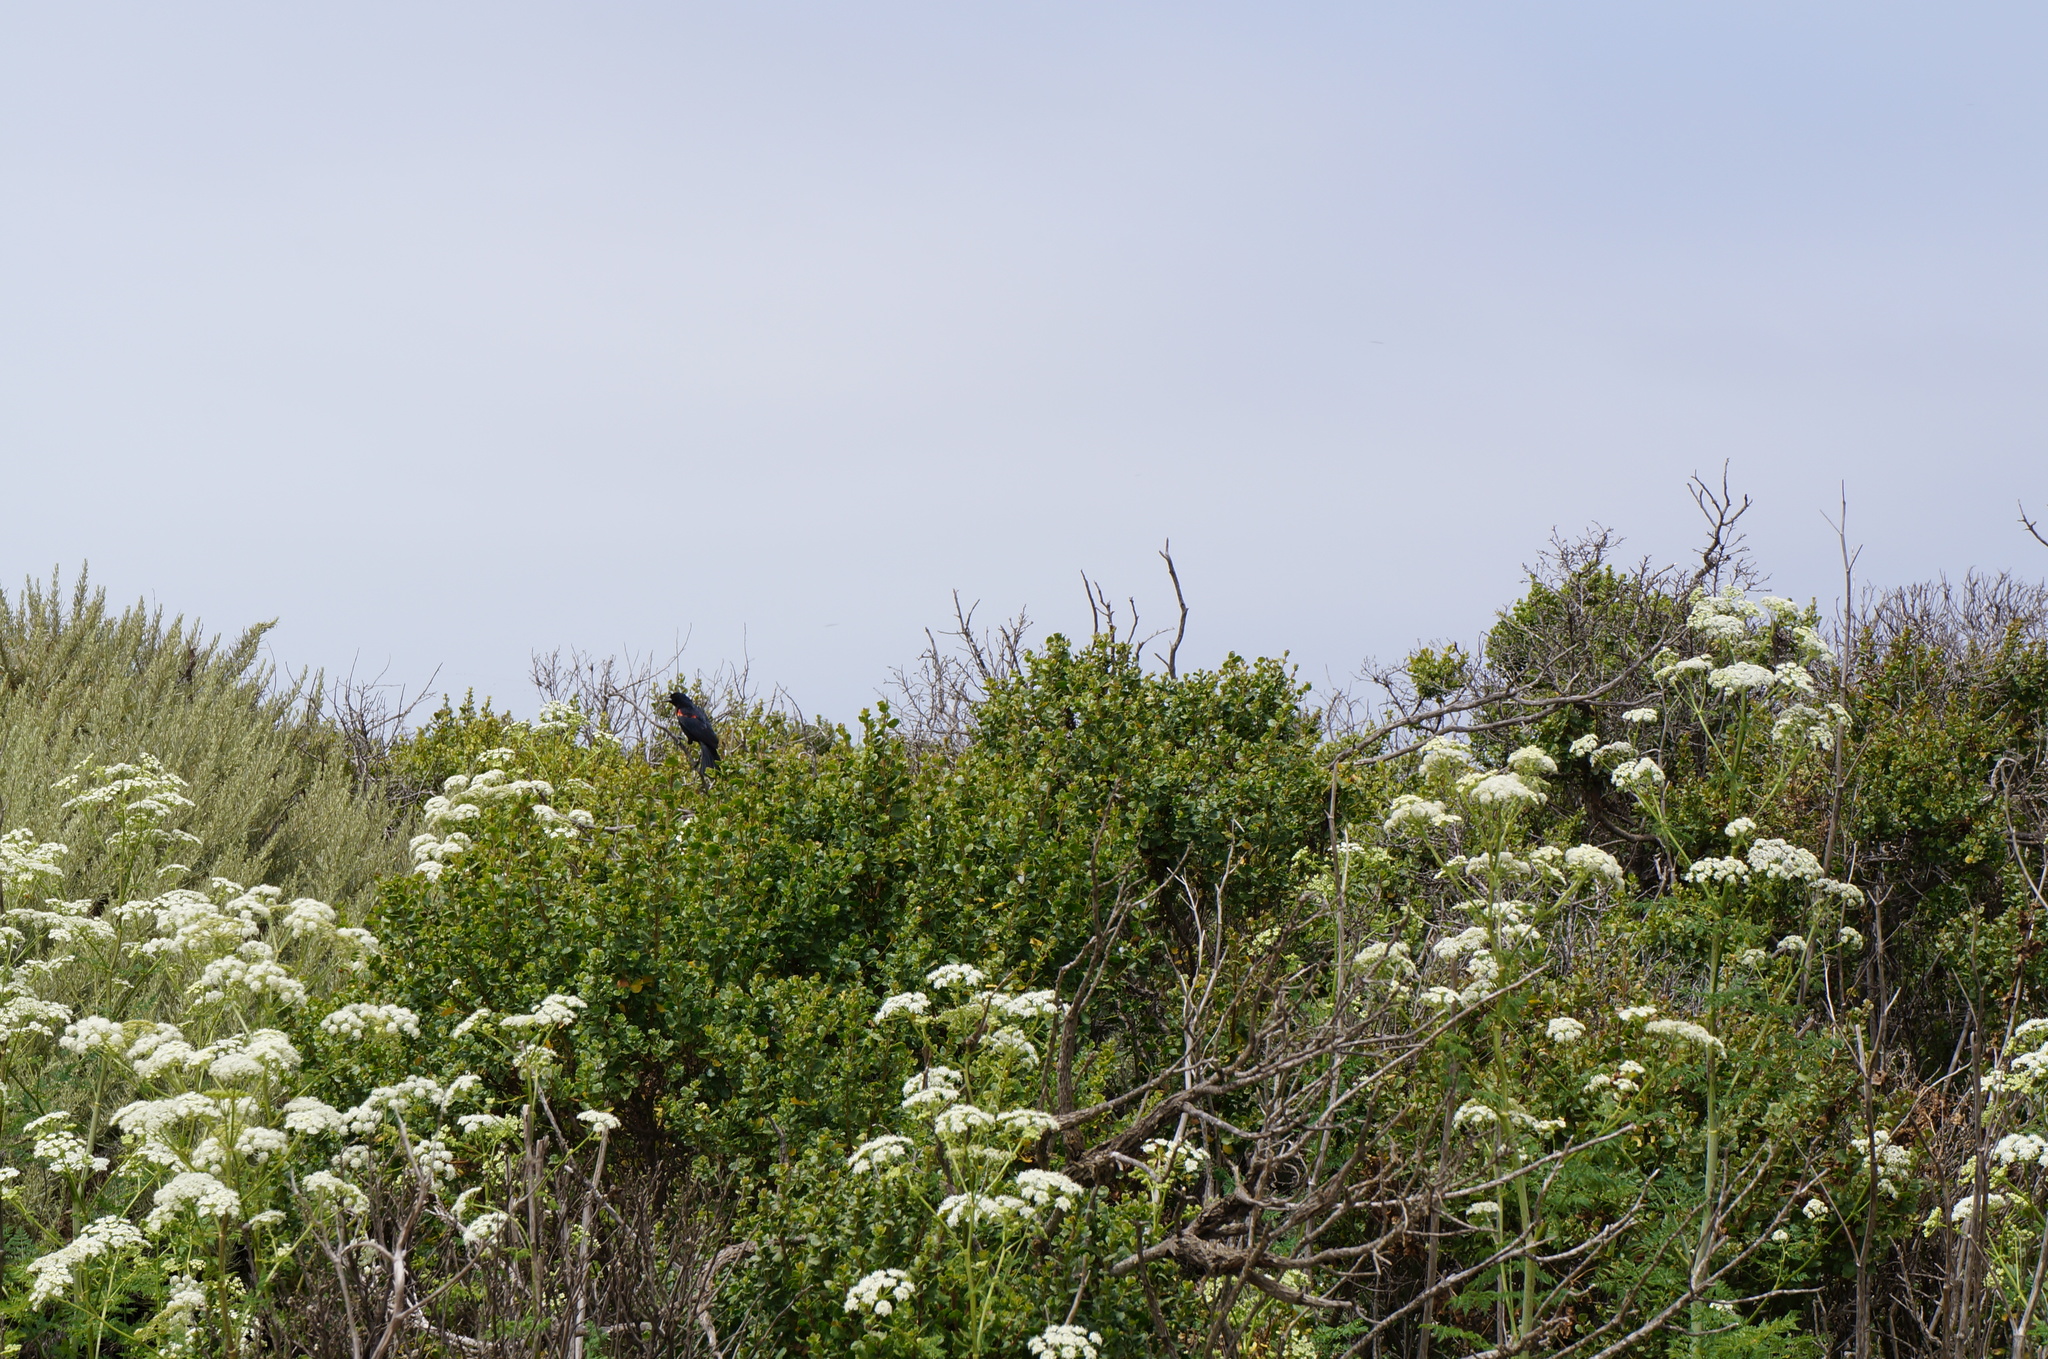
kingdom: Animalia
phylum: Chordata
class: Aves
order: Passeriformes
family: Icteridae
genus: Agelaius
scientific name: Agelaius phoeniceus
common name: Red-winged blackbird
